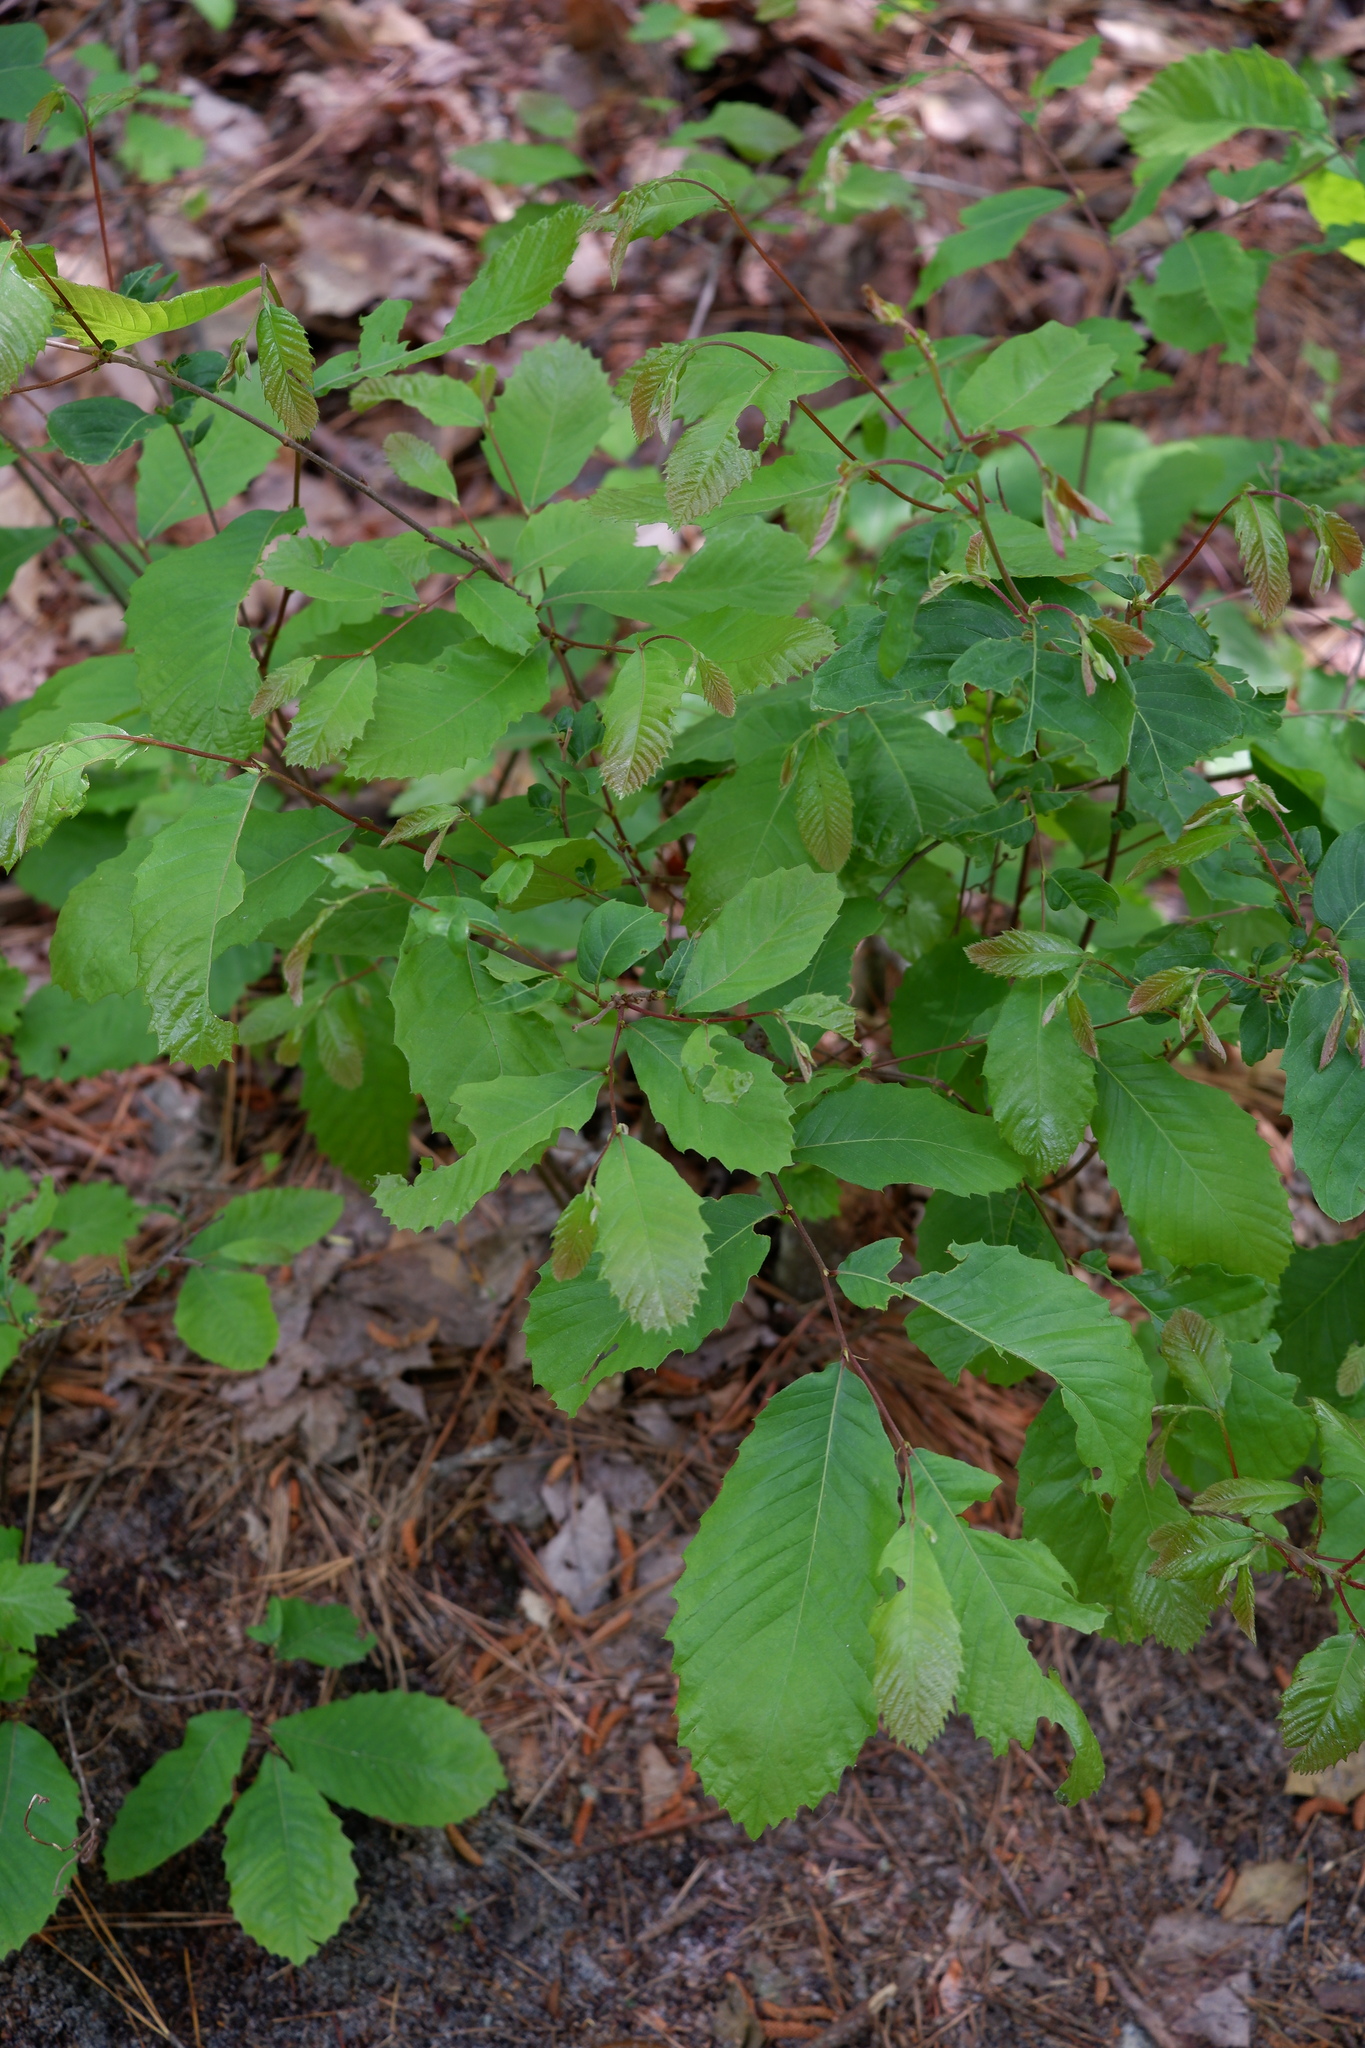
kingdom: Plantae
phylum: Tracheophyta
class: Magnoliopsida
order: Fagales
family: Fagaceae
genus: Castanea
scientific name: Castanea pumila
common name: Chinkapin
